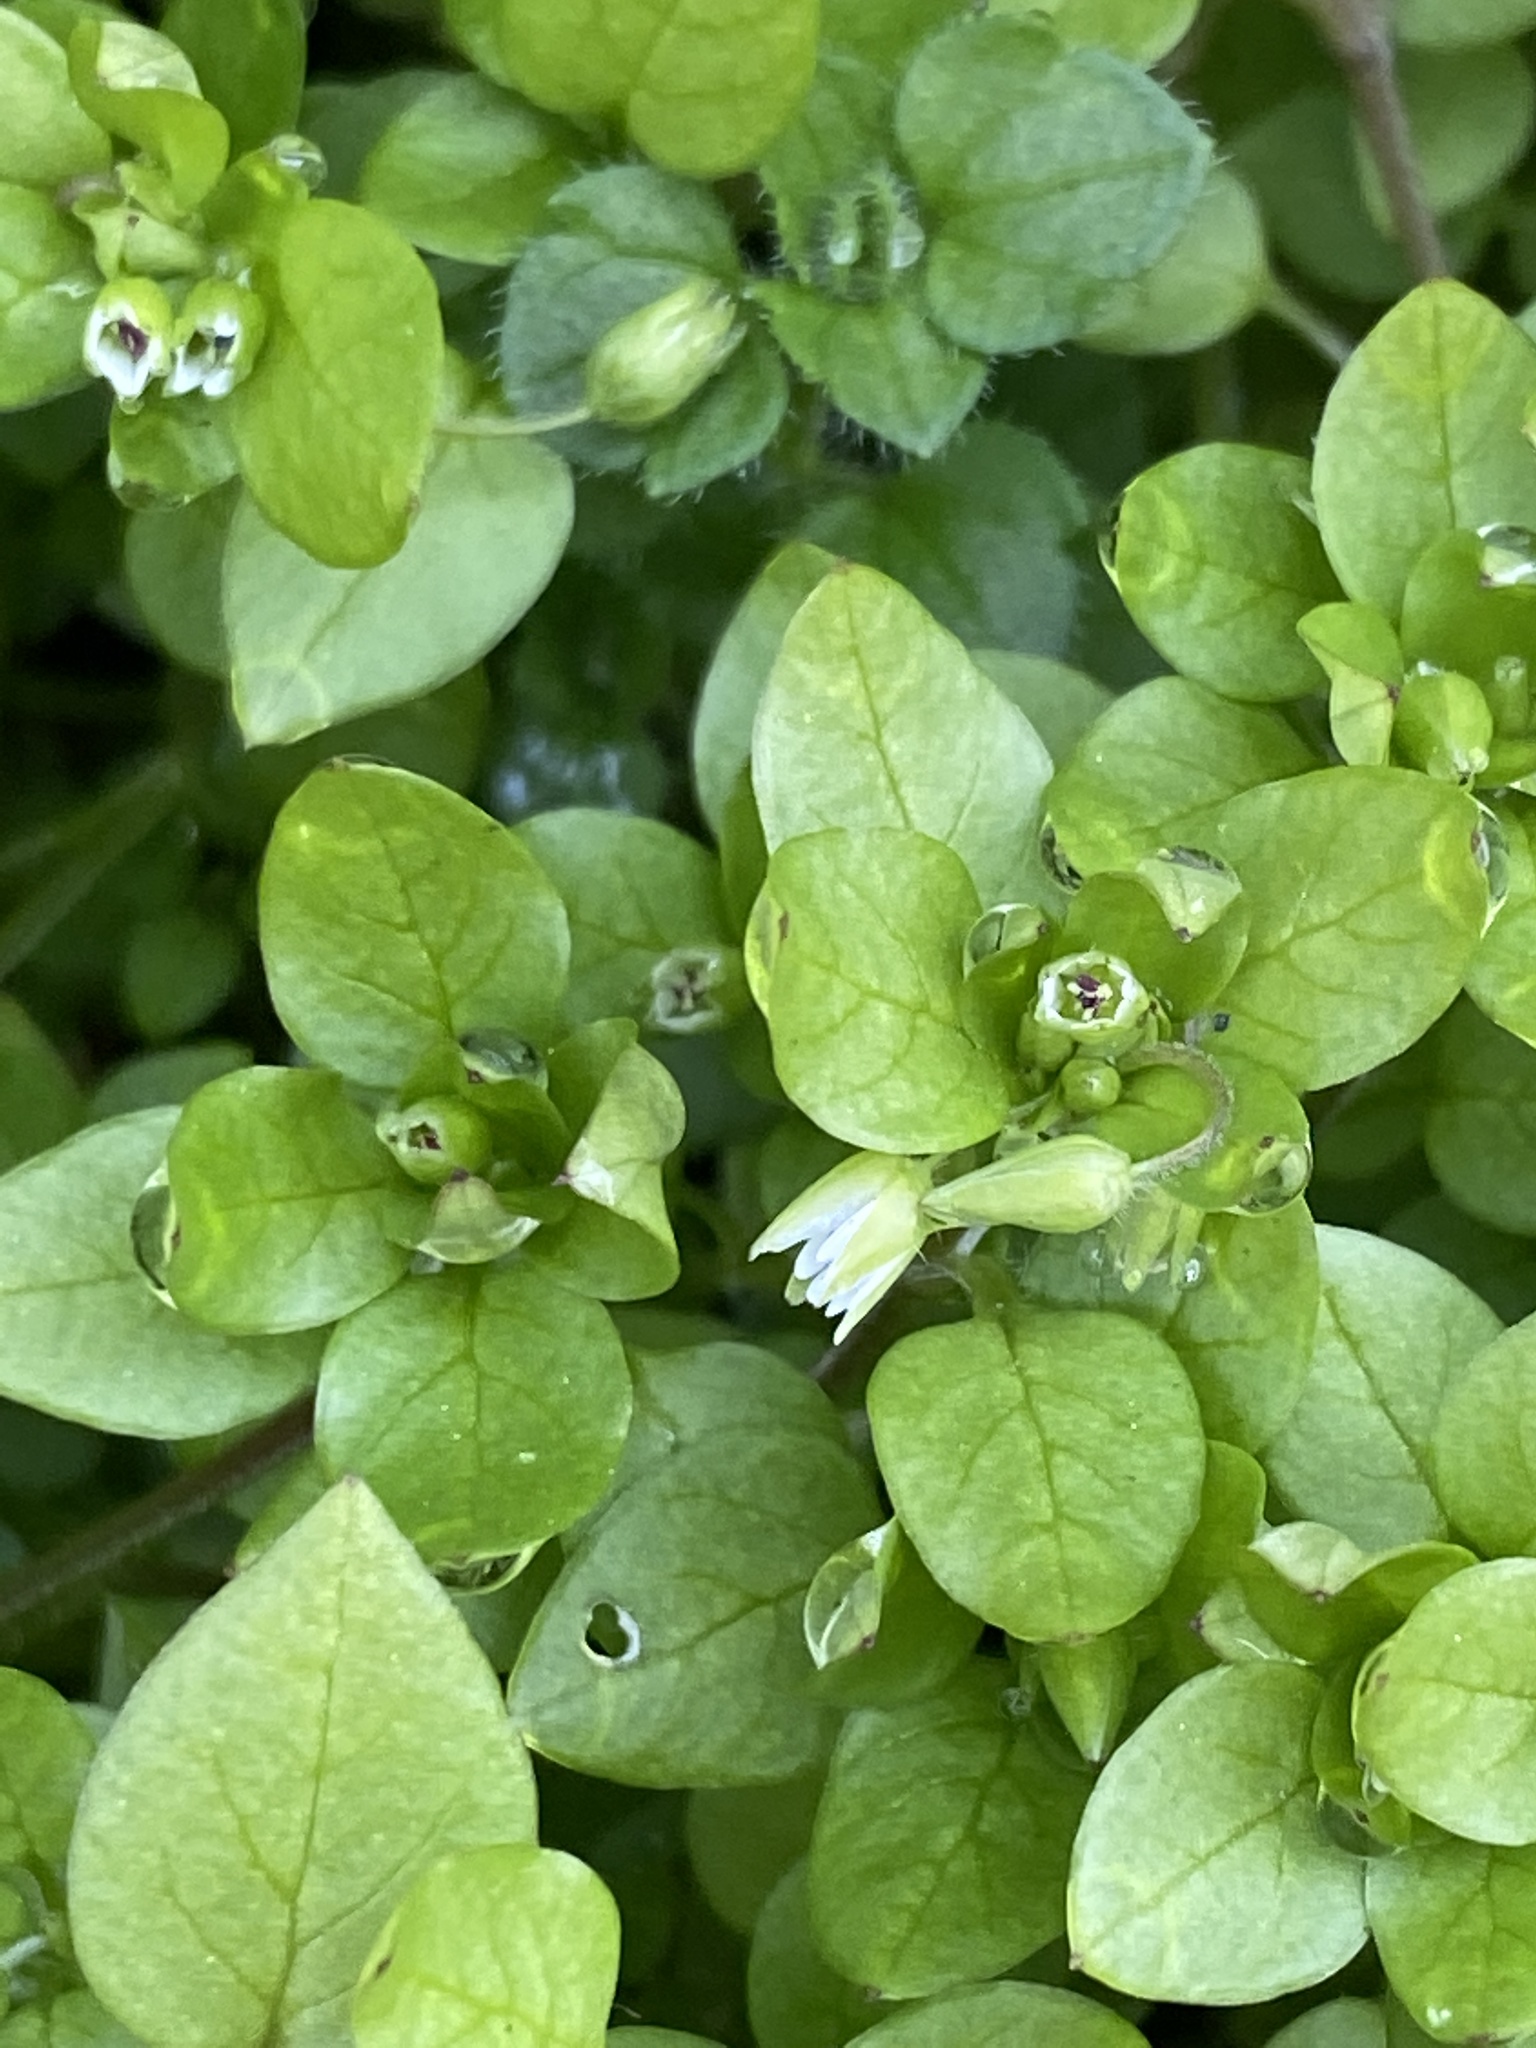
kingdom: Plantae
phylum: Tracheophyta
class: Magnoliopsida
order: Caryophyllales
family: Caryophyllaceae
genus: Stellaria
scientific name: Stellaria media
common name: Common chickweed
